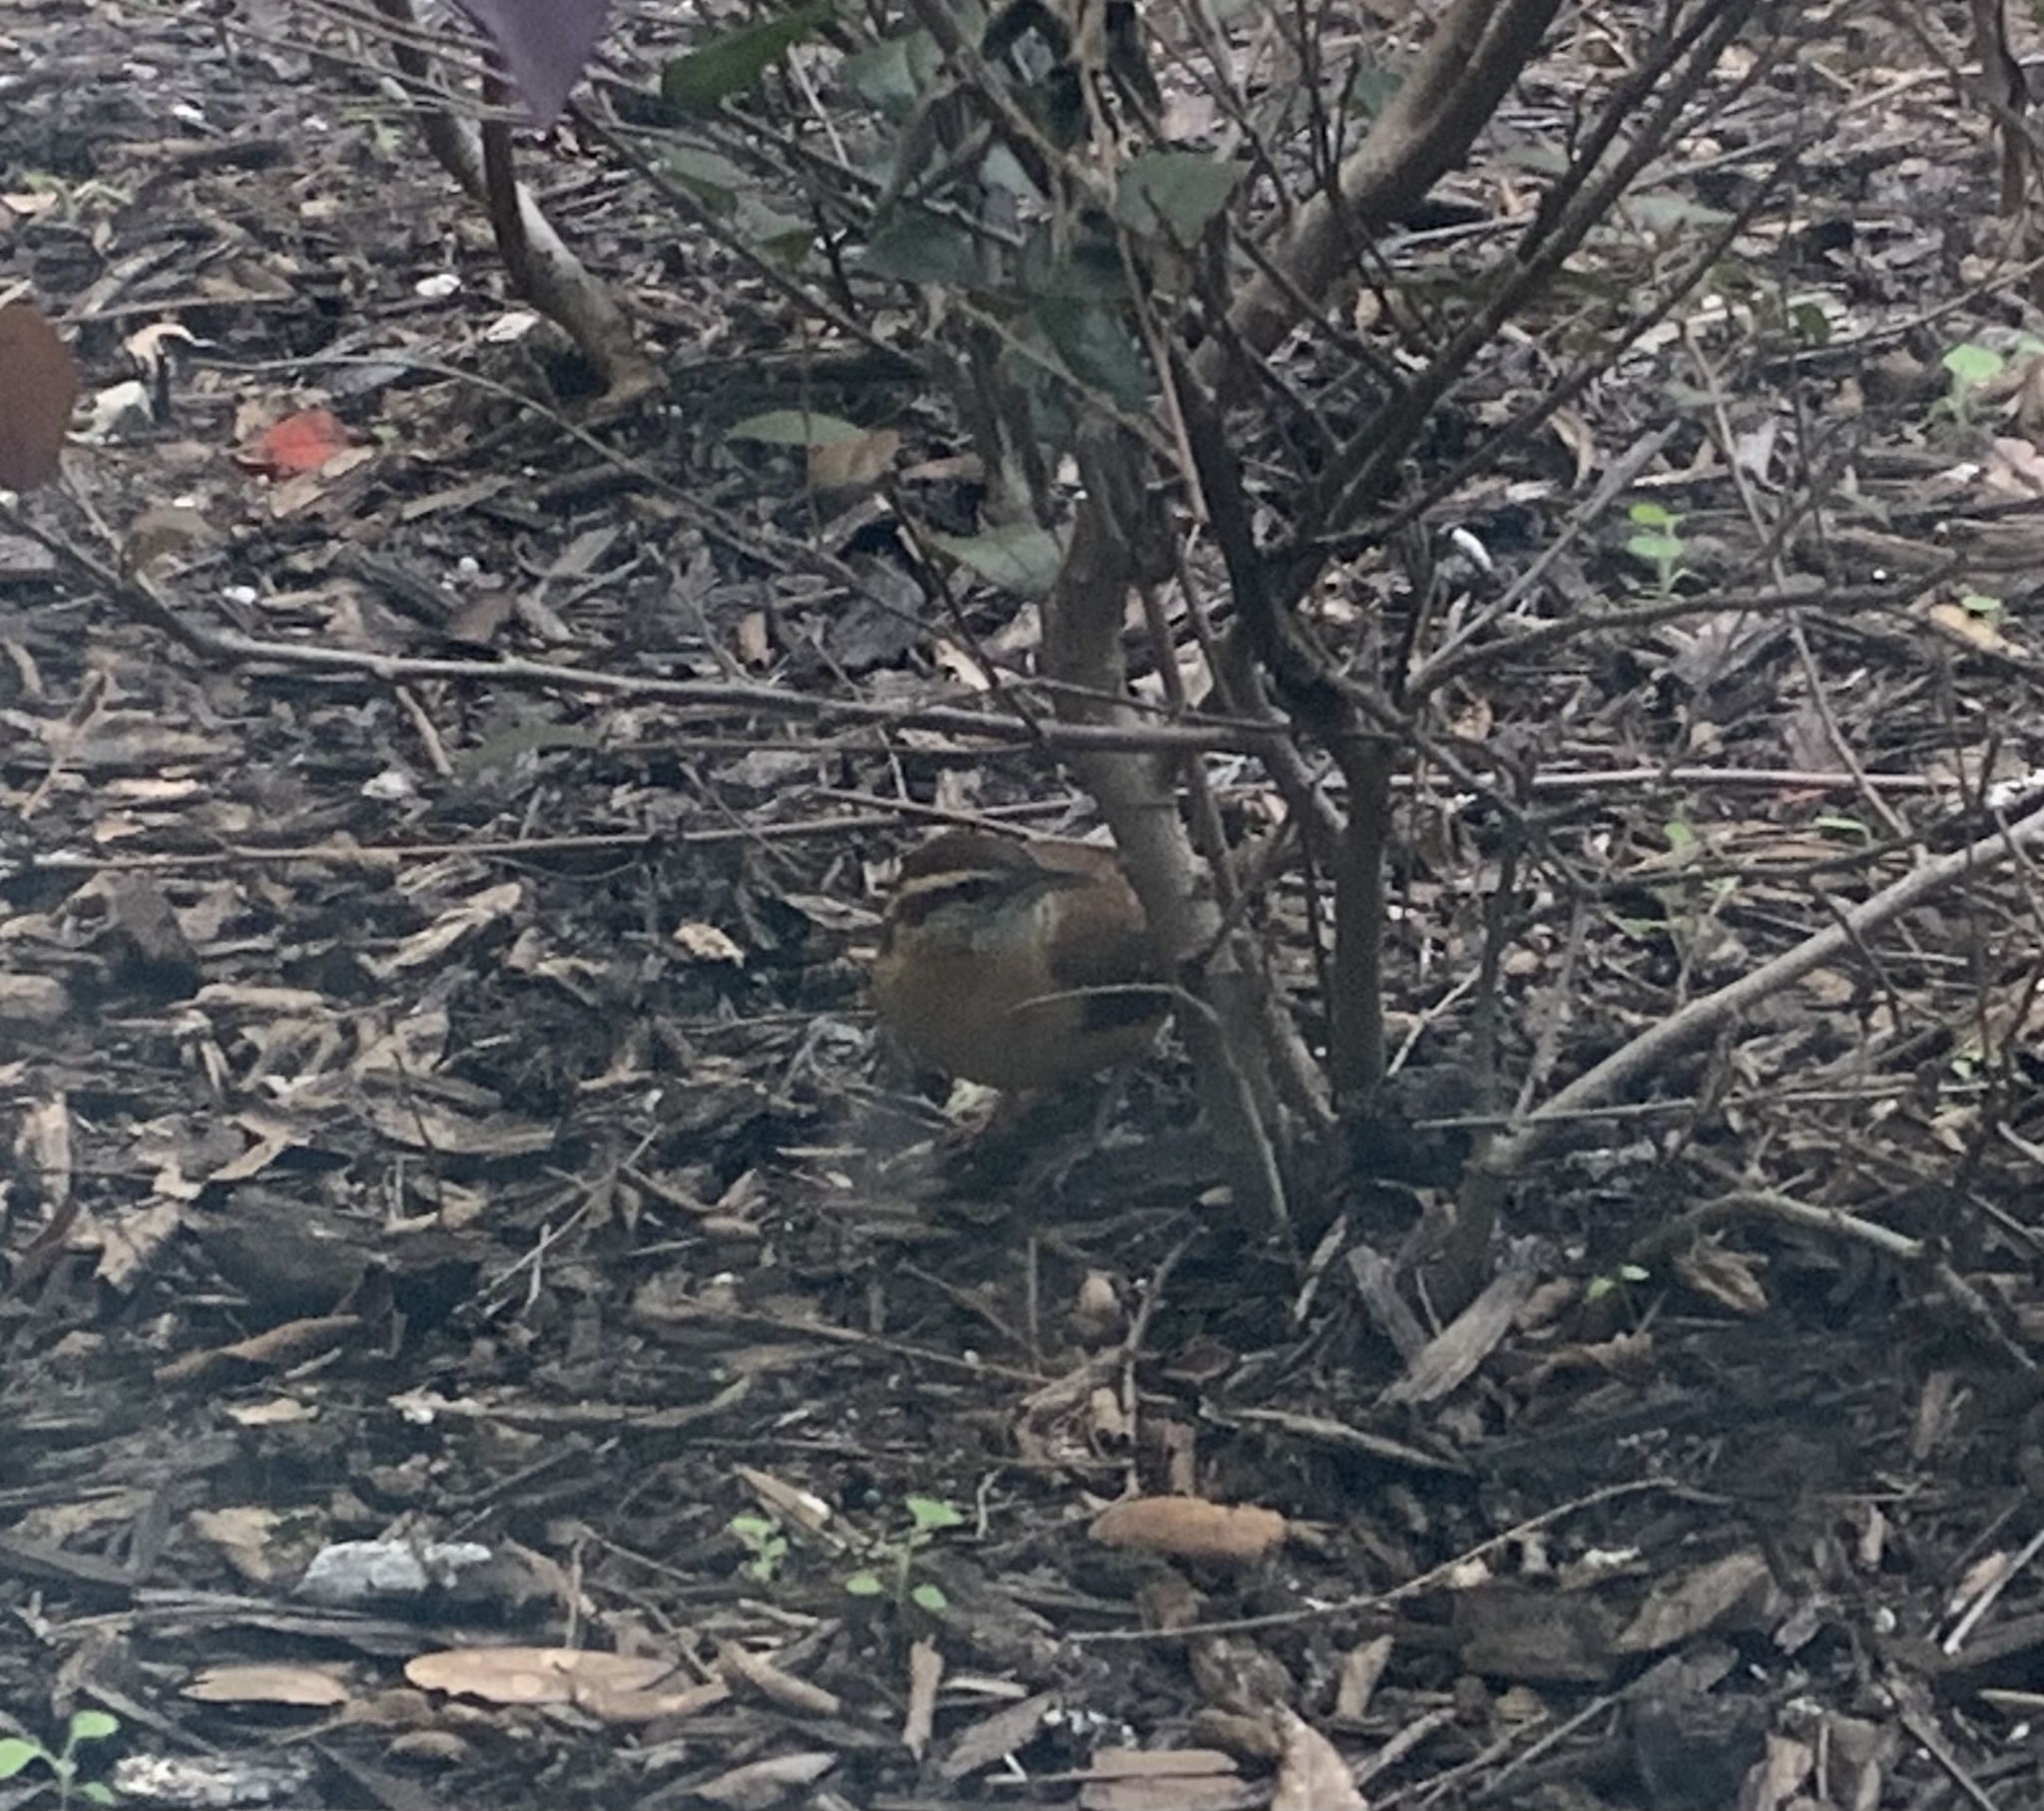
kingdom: Animalia
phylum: Chordata
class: Aves
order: Passeriformes
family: Troglodytidae
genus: Thryothorus
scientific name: Thryothorus ludovicianus
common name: Carolina wren
